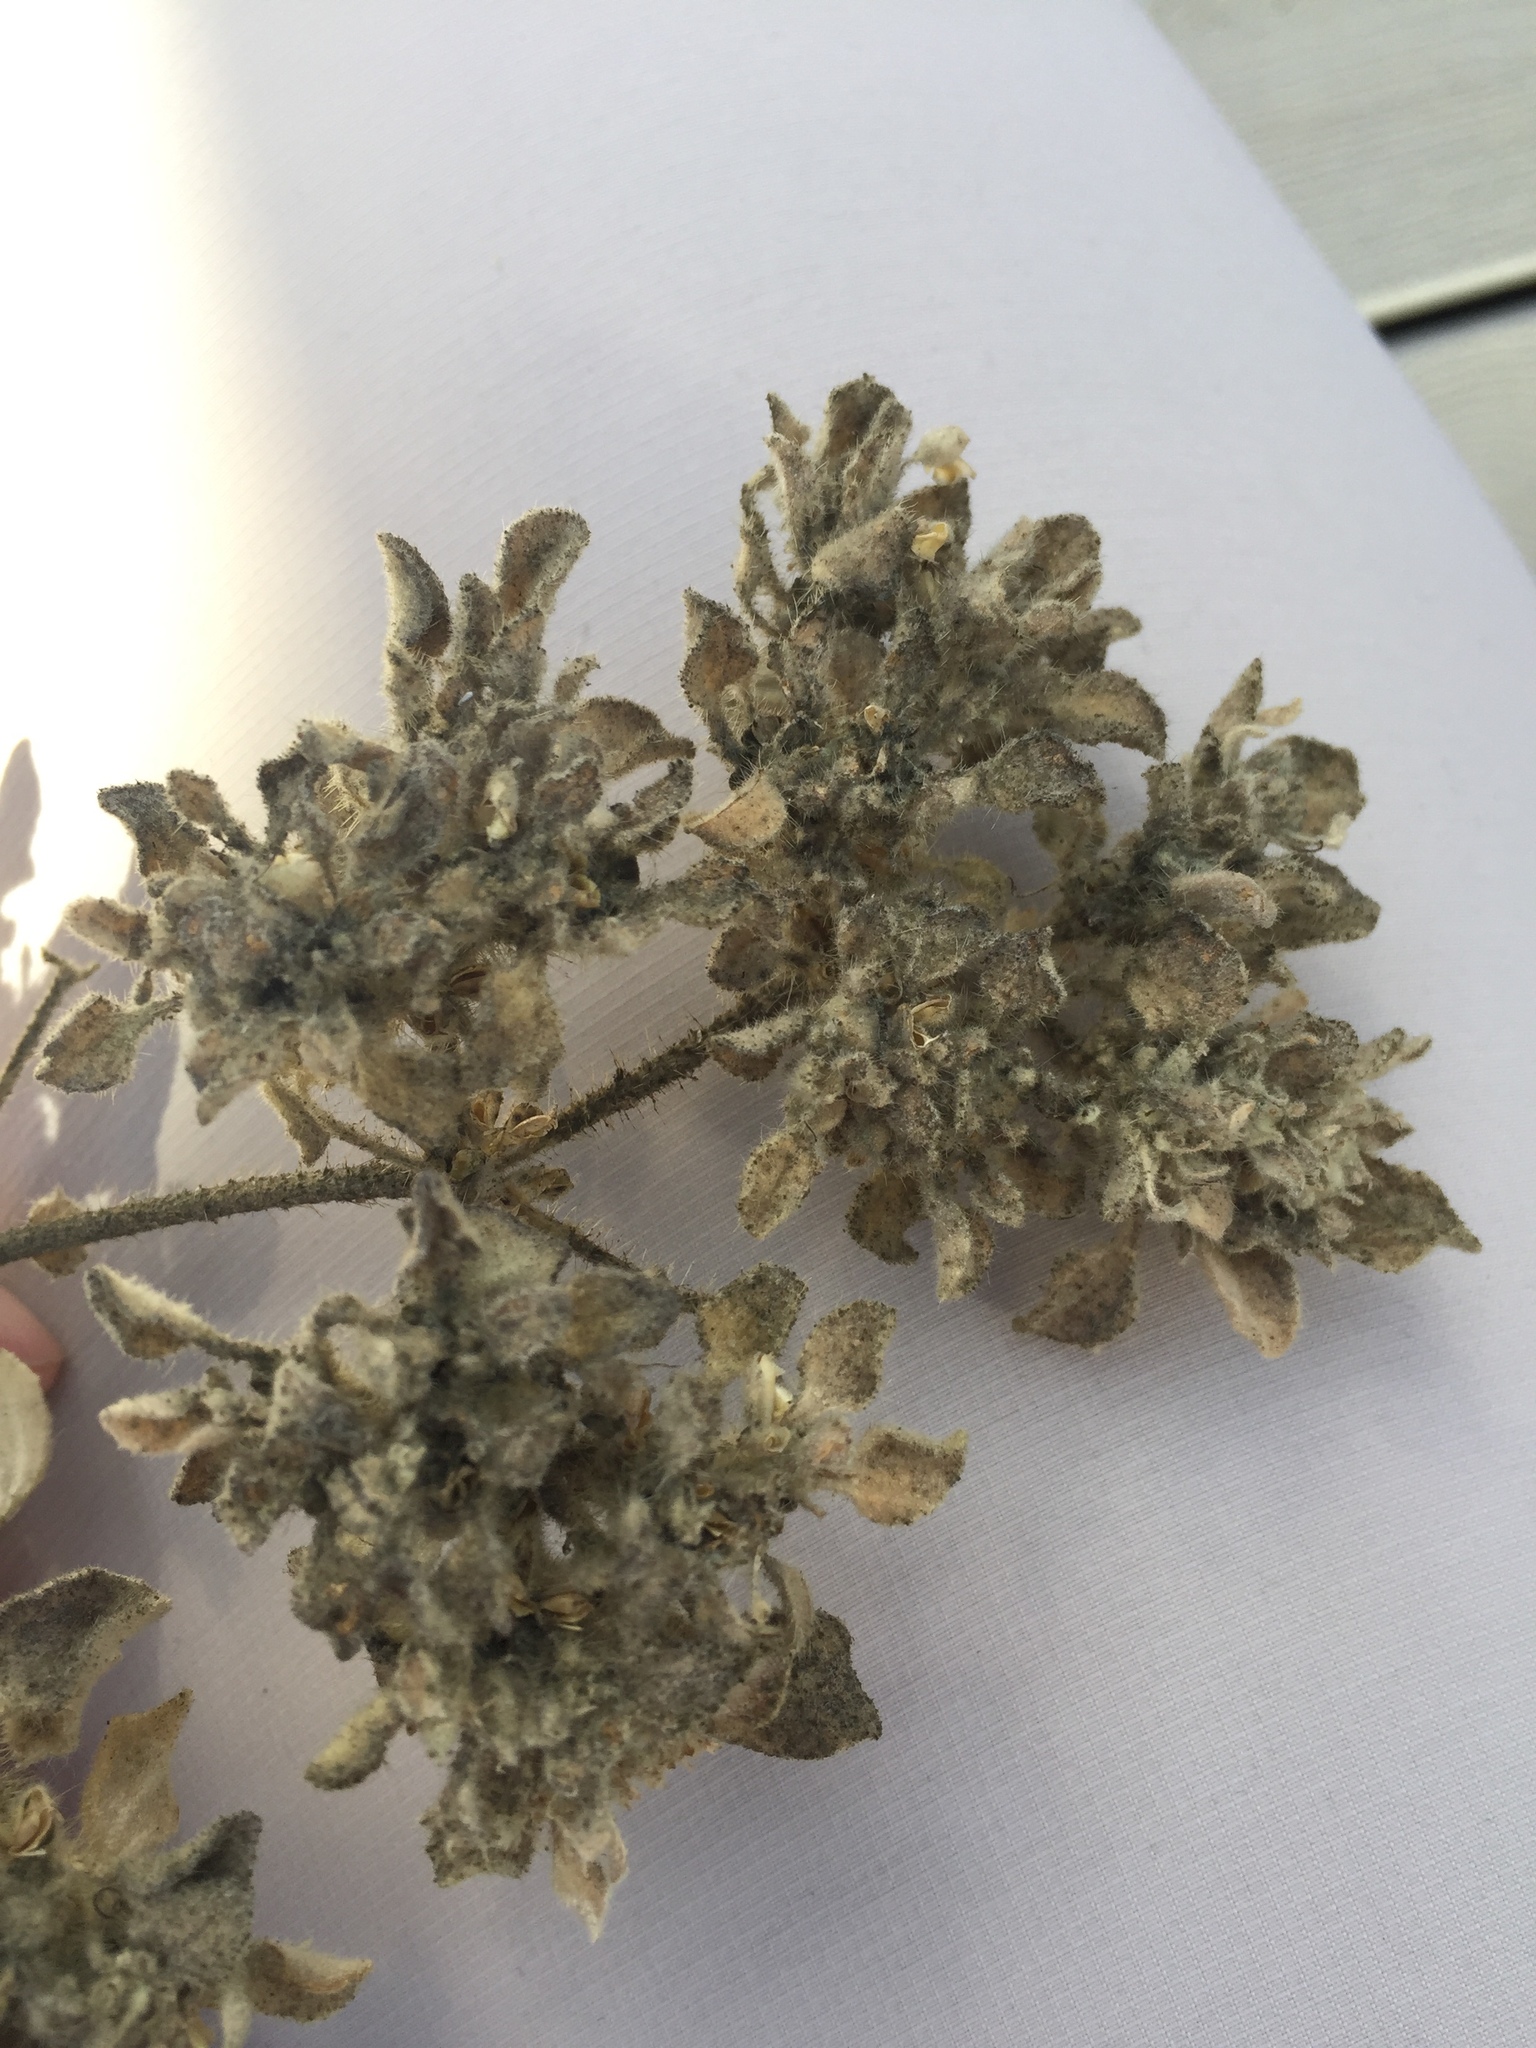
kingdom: Plantae
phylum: Tracheophyta
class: Magnoliopsida
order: Malpighiales
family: Euphorbiaceae
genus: Croton
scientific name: Croton setiger
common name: Dove weed
